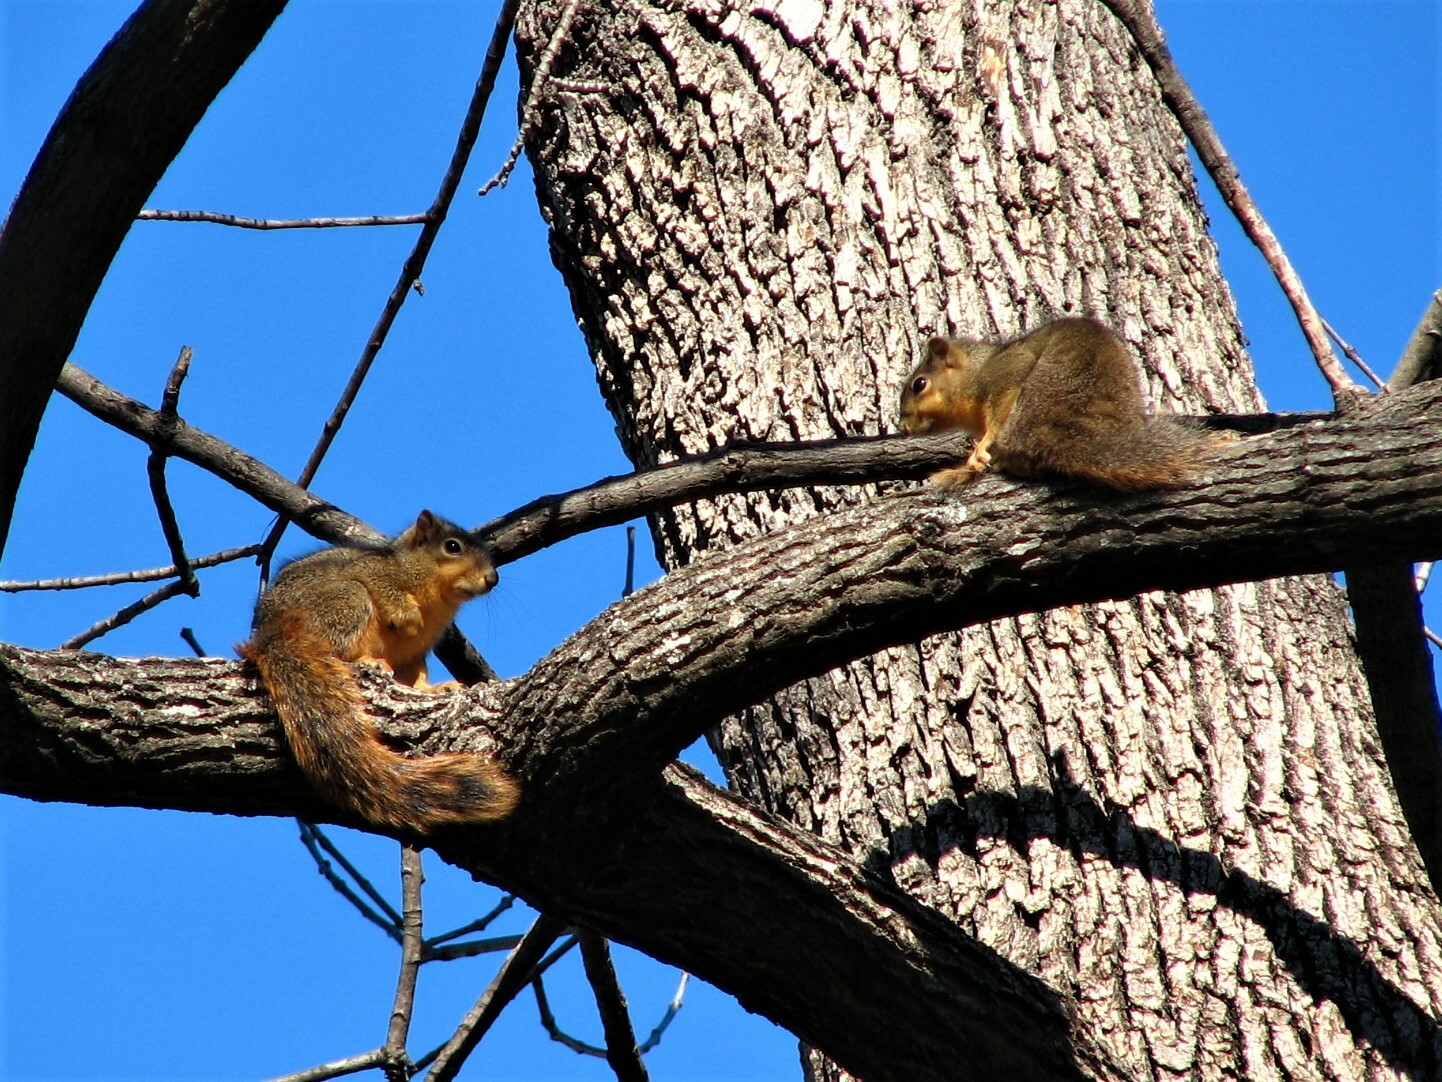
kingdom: Animalia
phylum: Chordata
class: Mammalia
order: Rodentia
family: Sciuridae
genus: Sciurus
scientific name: Sciurus niger
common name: Fox squirrel
